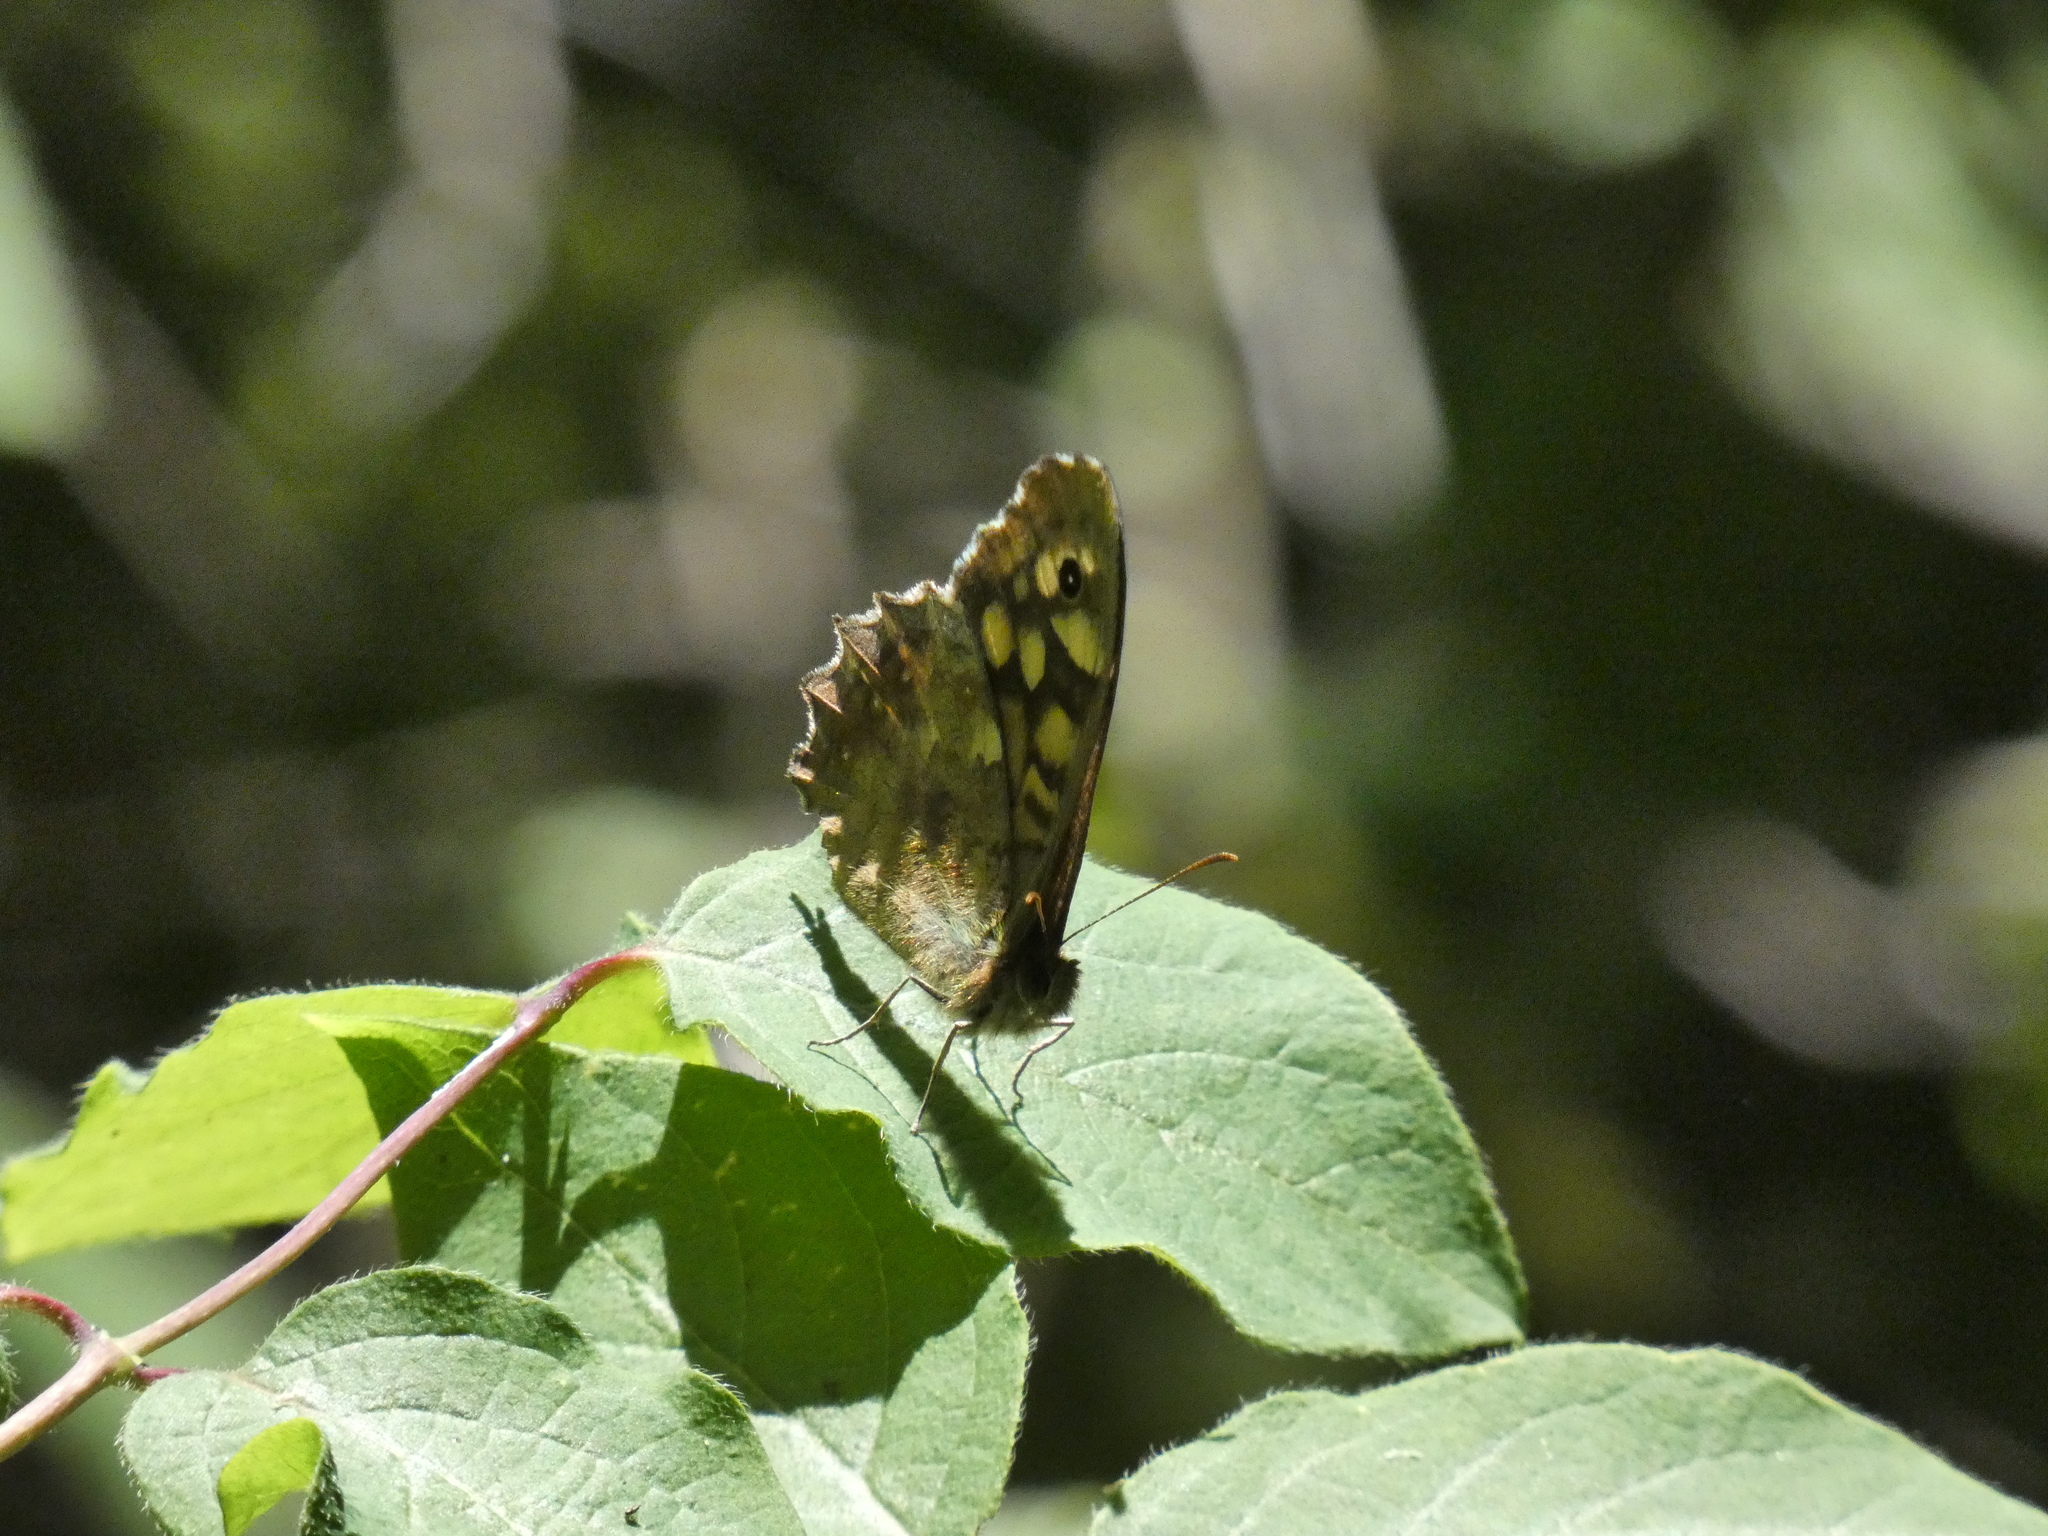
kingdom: Animalia
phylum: Arthropoda
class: Insecta
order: Lepidoptera
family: Nymphalidae
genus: Pararge
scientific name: Pararge aegeria
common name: Speckled wood
